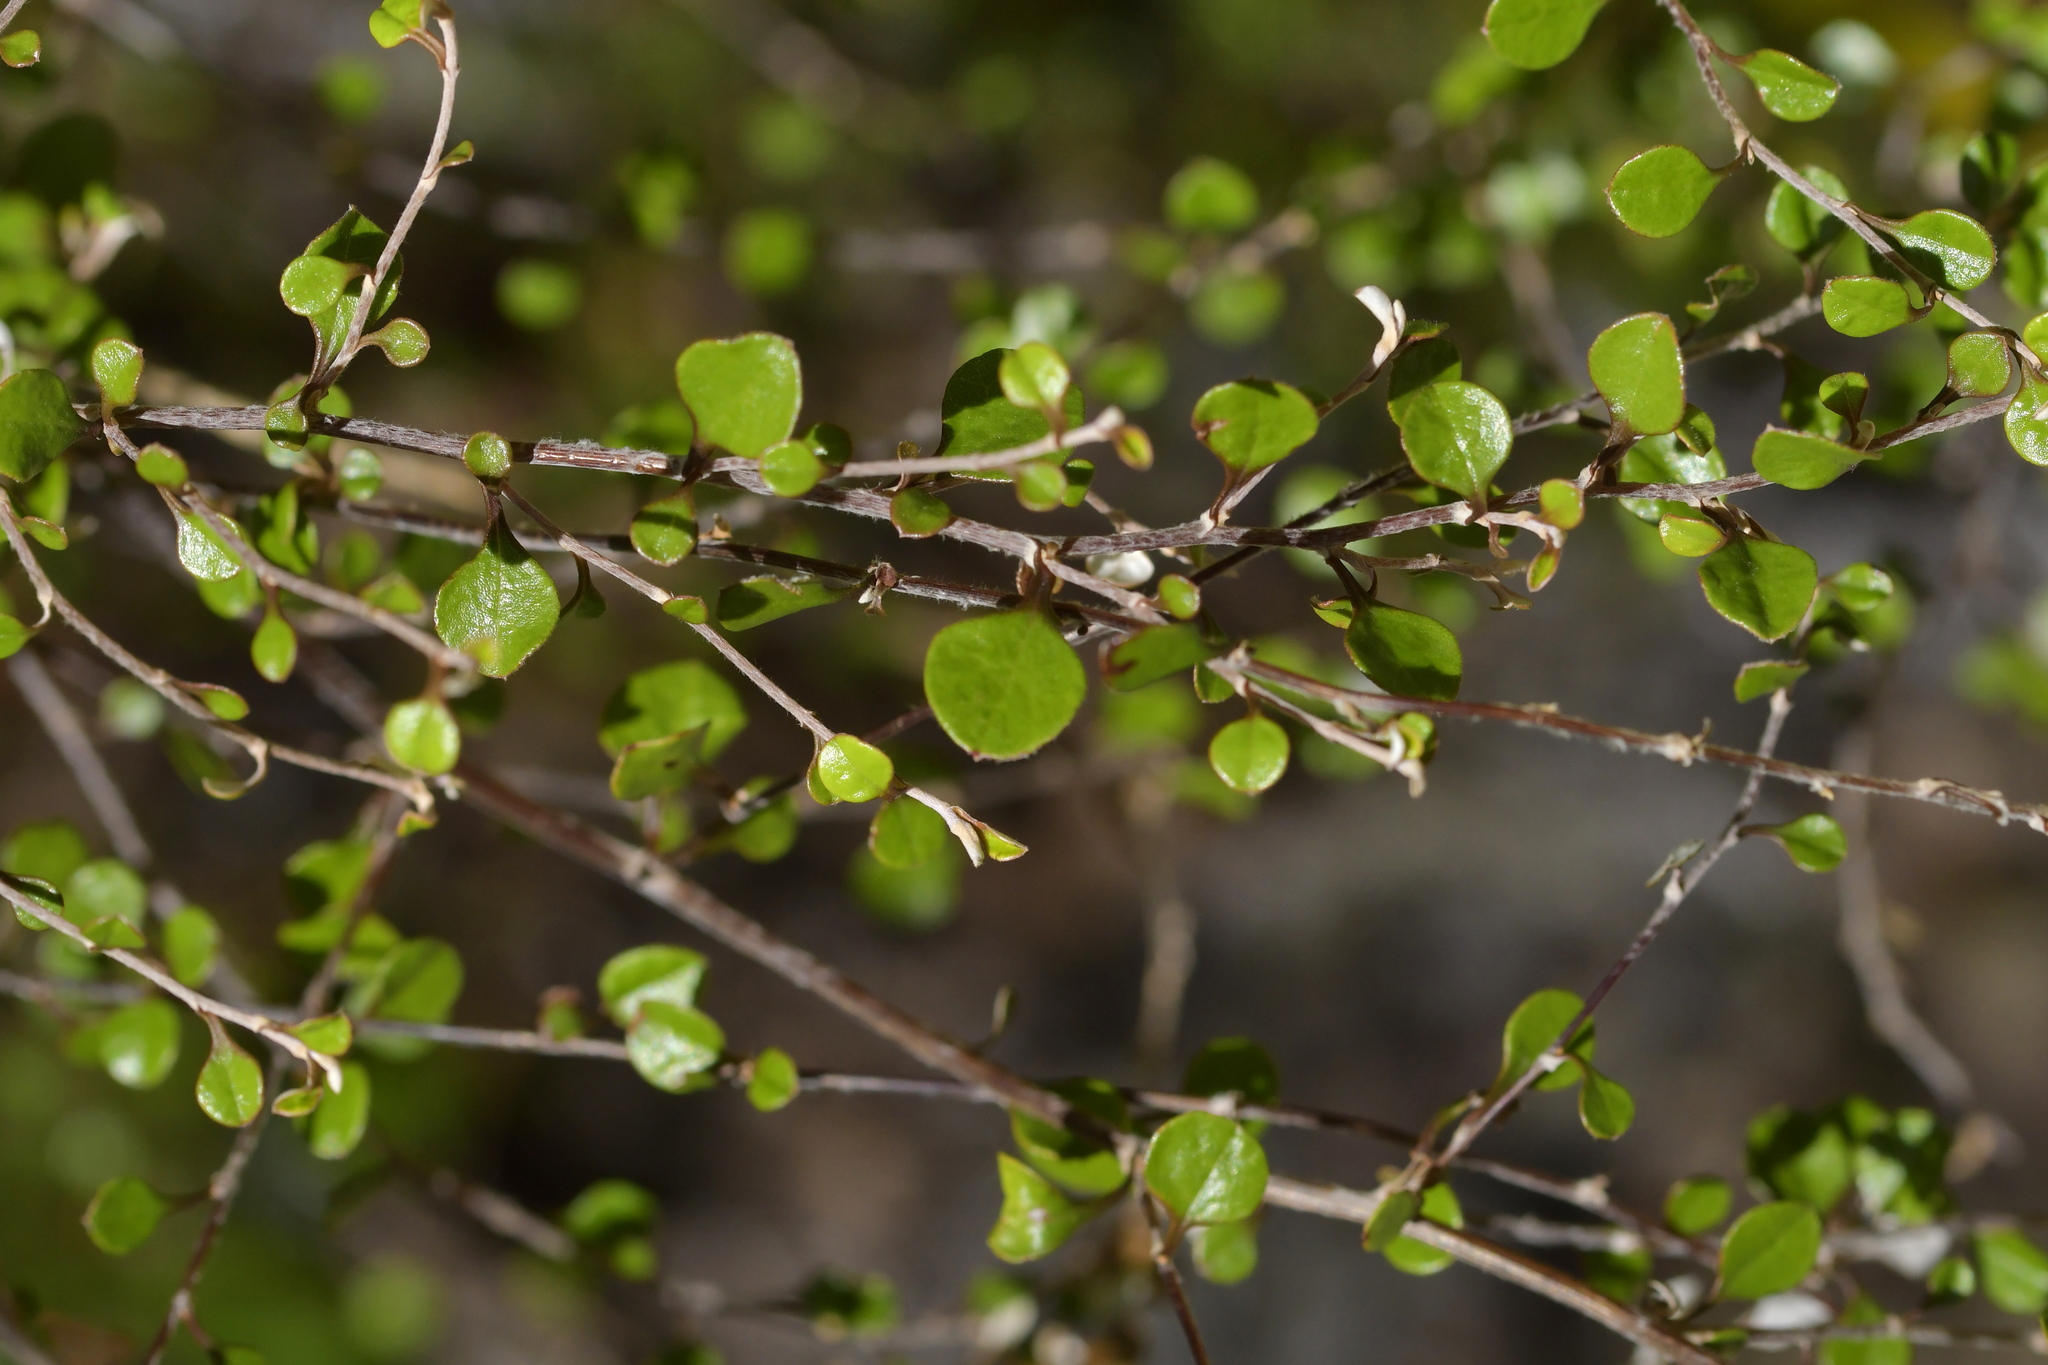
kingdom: Plantae
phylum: Tracheophyta
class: Magnoliopsida
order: Asterales
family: Asteraceae
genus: Ozothamnus
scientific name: Ozothamnus glomeratus
